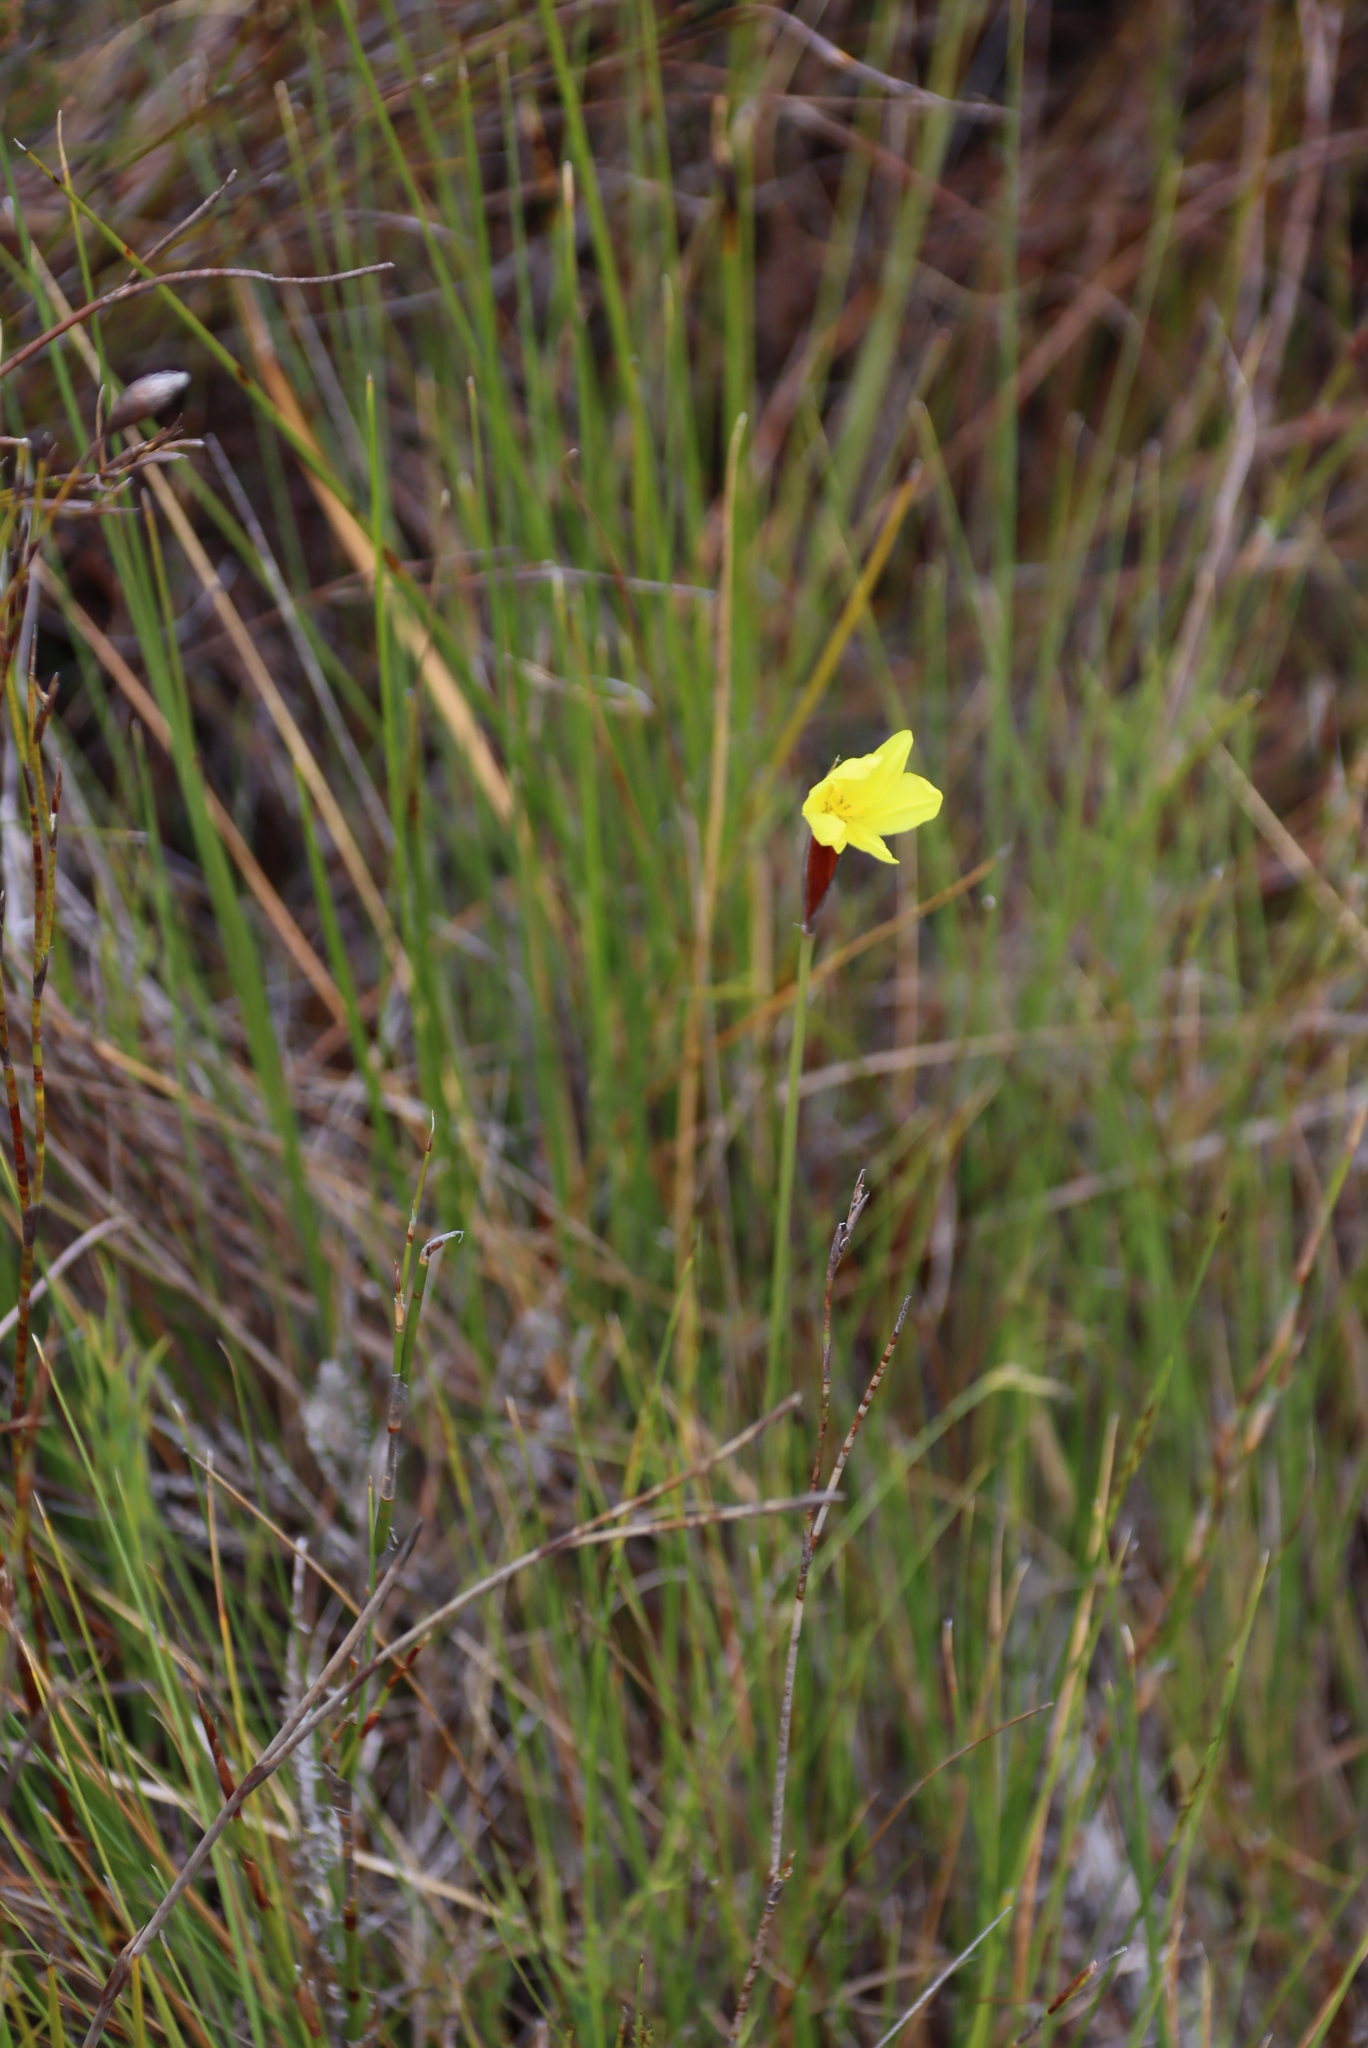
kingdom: Plantae
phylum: Tracheophyta
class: Liliopsida
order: Asparagales
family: Iridaceae
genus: Bobartia
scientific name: Bobartia macrospatha
